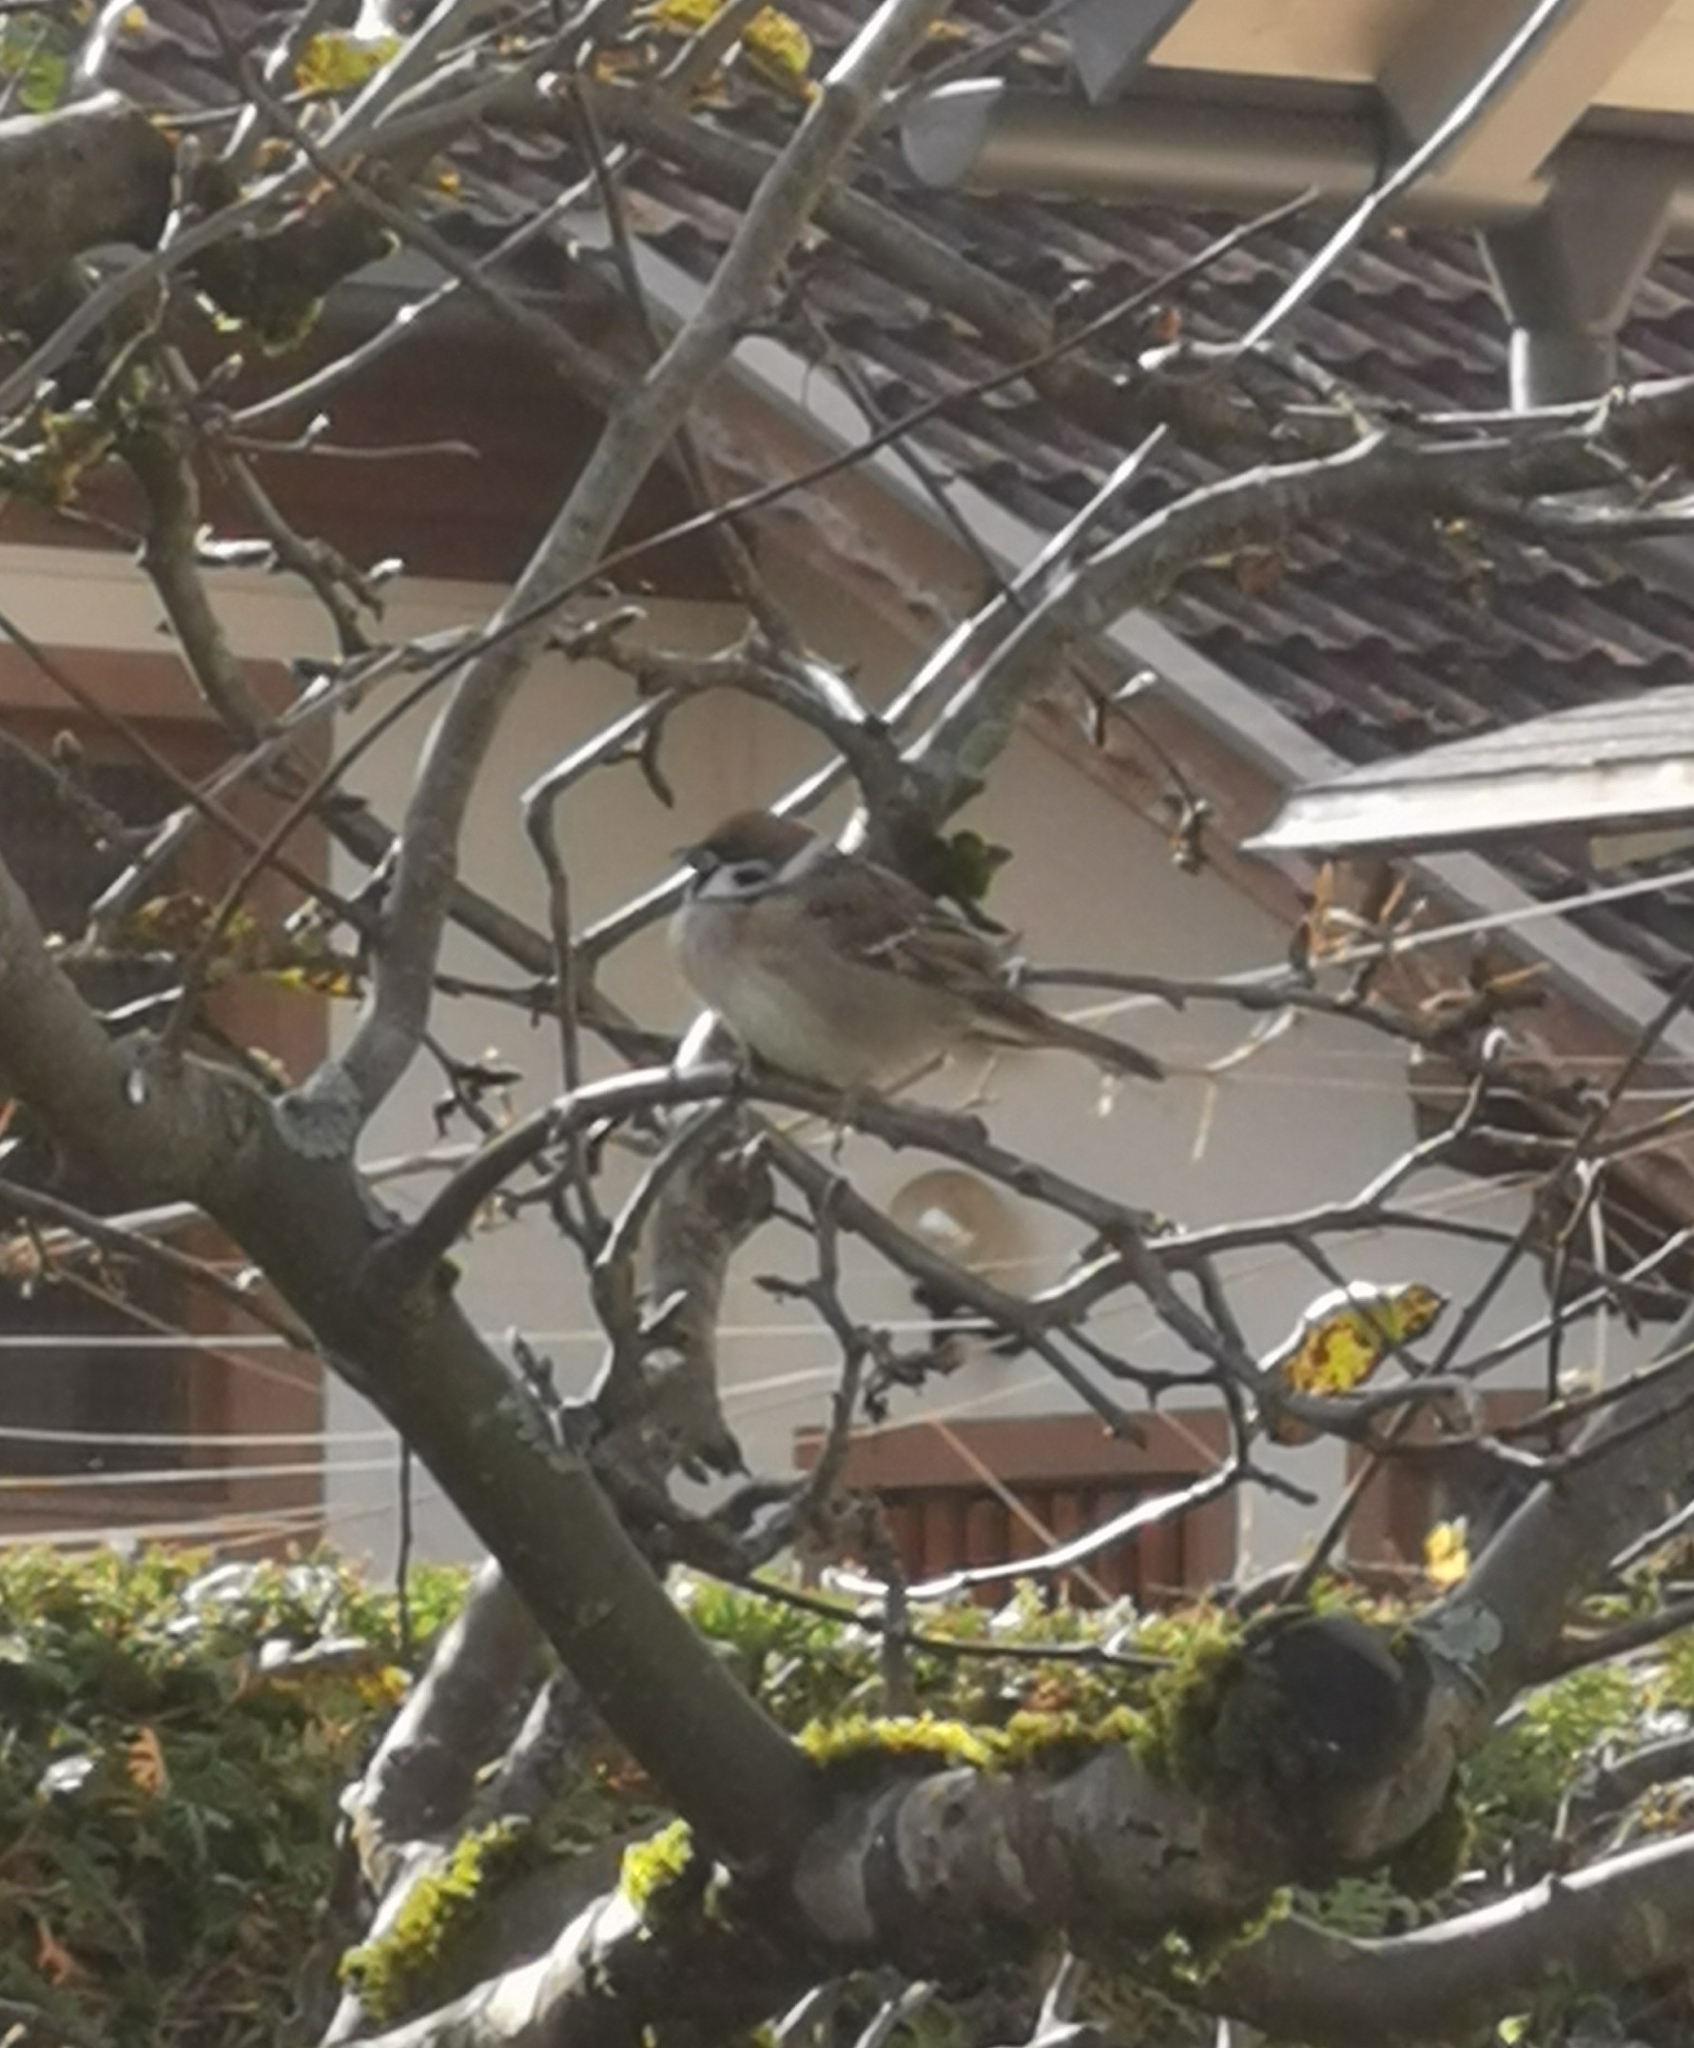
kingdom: Animalia
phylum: Chordata
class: Aves
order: Passeriformes
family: Passeridae
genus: Passer
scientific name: Passer montanus
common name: Eurasian tree sparrow
